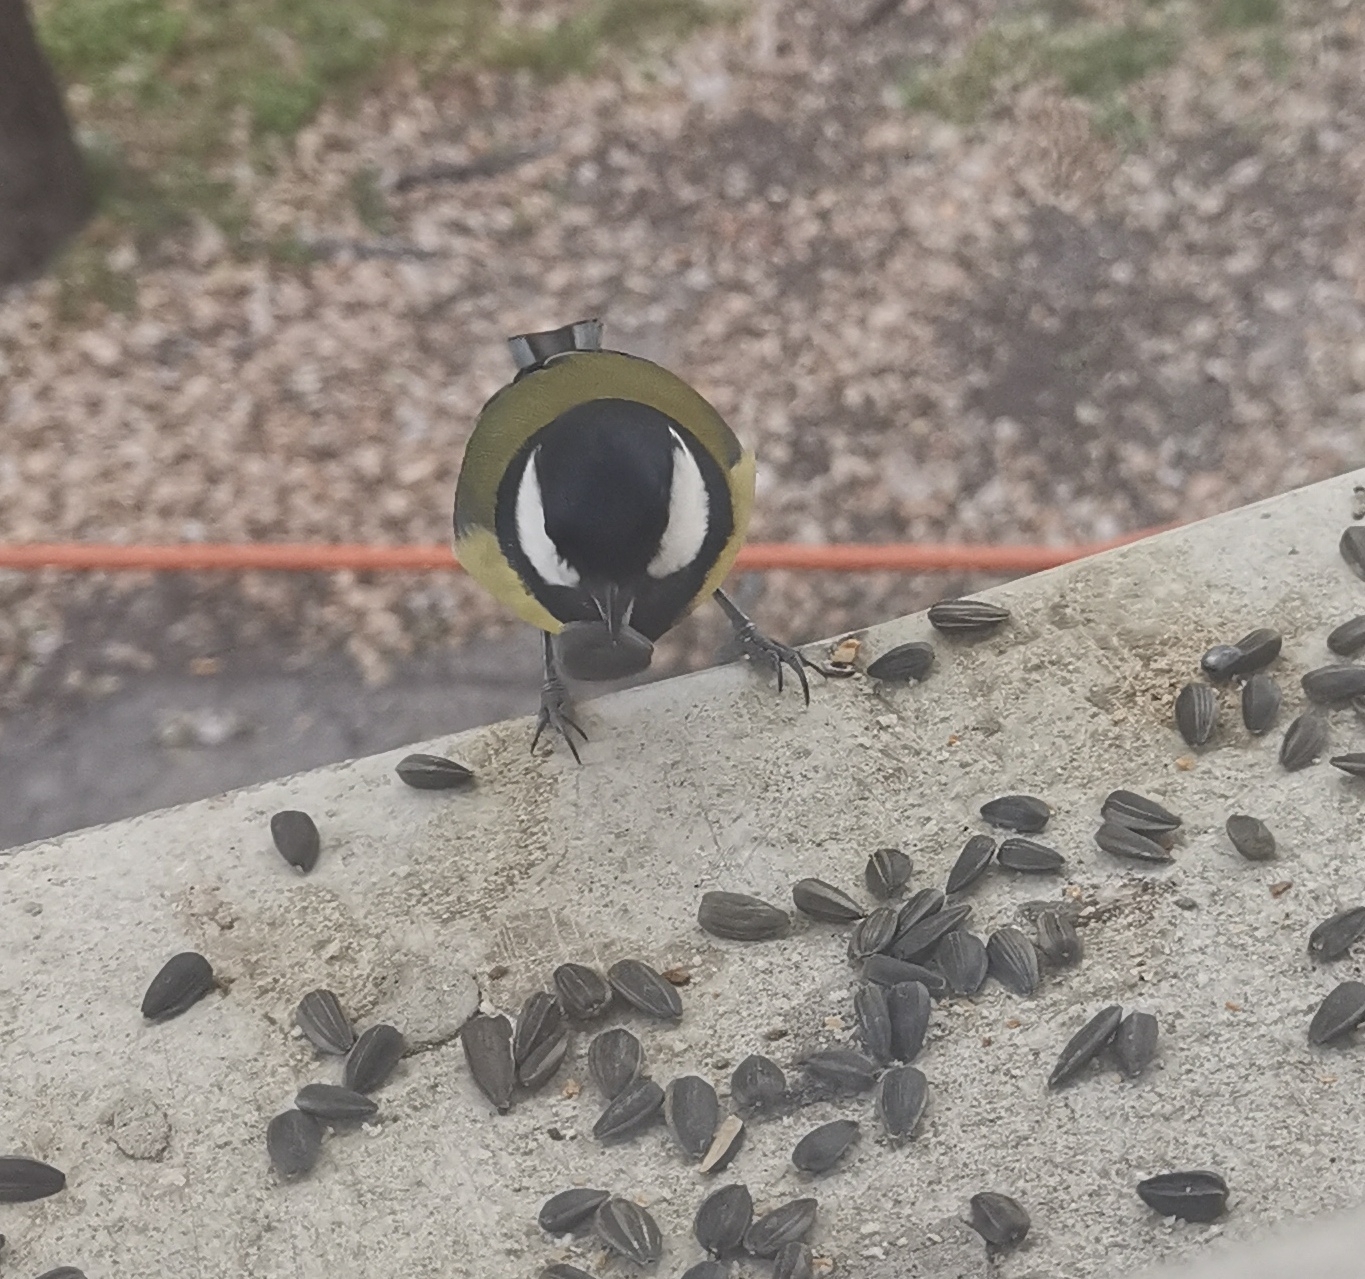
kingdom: Animalia
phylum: Chordata
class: Aves
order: Passeriformes
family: Paridae
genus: Parus
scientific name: Parus major
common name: Great tit
